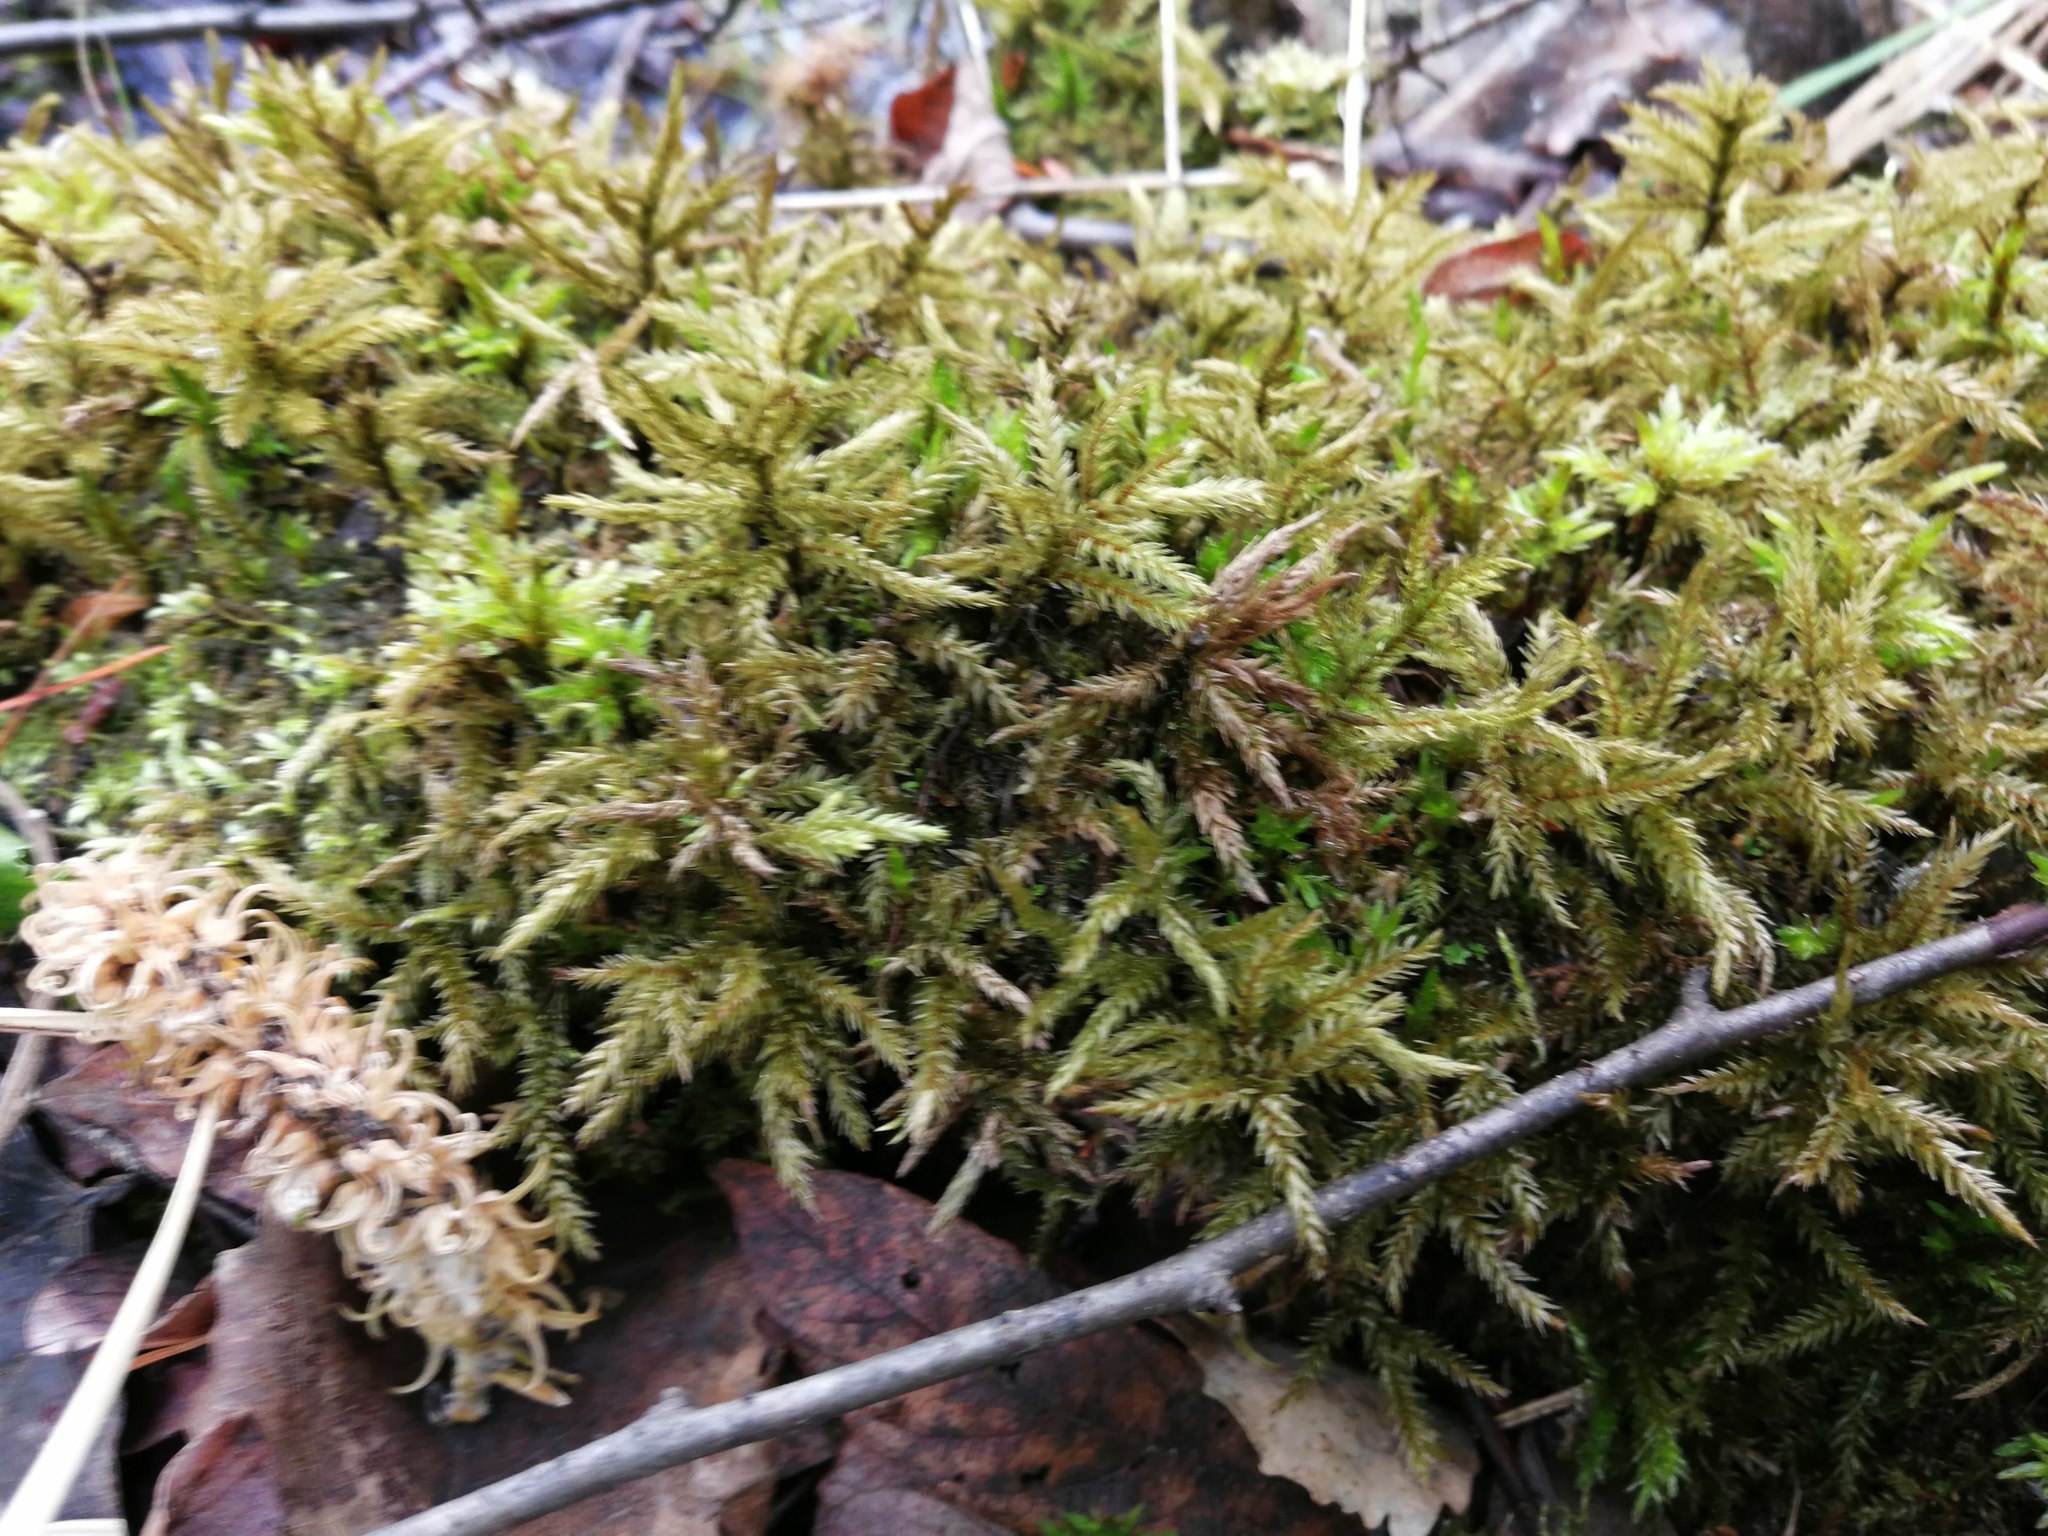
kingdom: Plantae
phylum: Bryophyta
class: Bryopsida
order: Hypnales
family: Climaciaceae
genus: Climacium
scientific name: Climacium dendroides
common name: Northern tree moss
